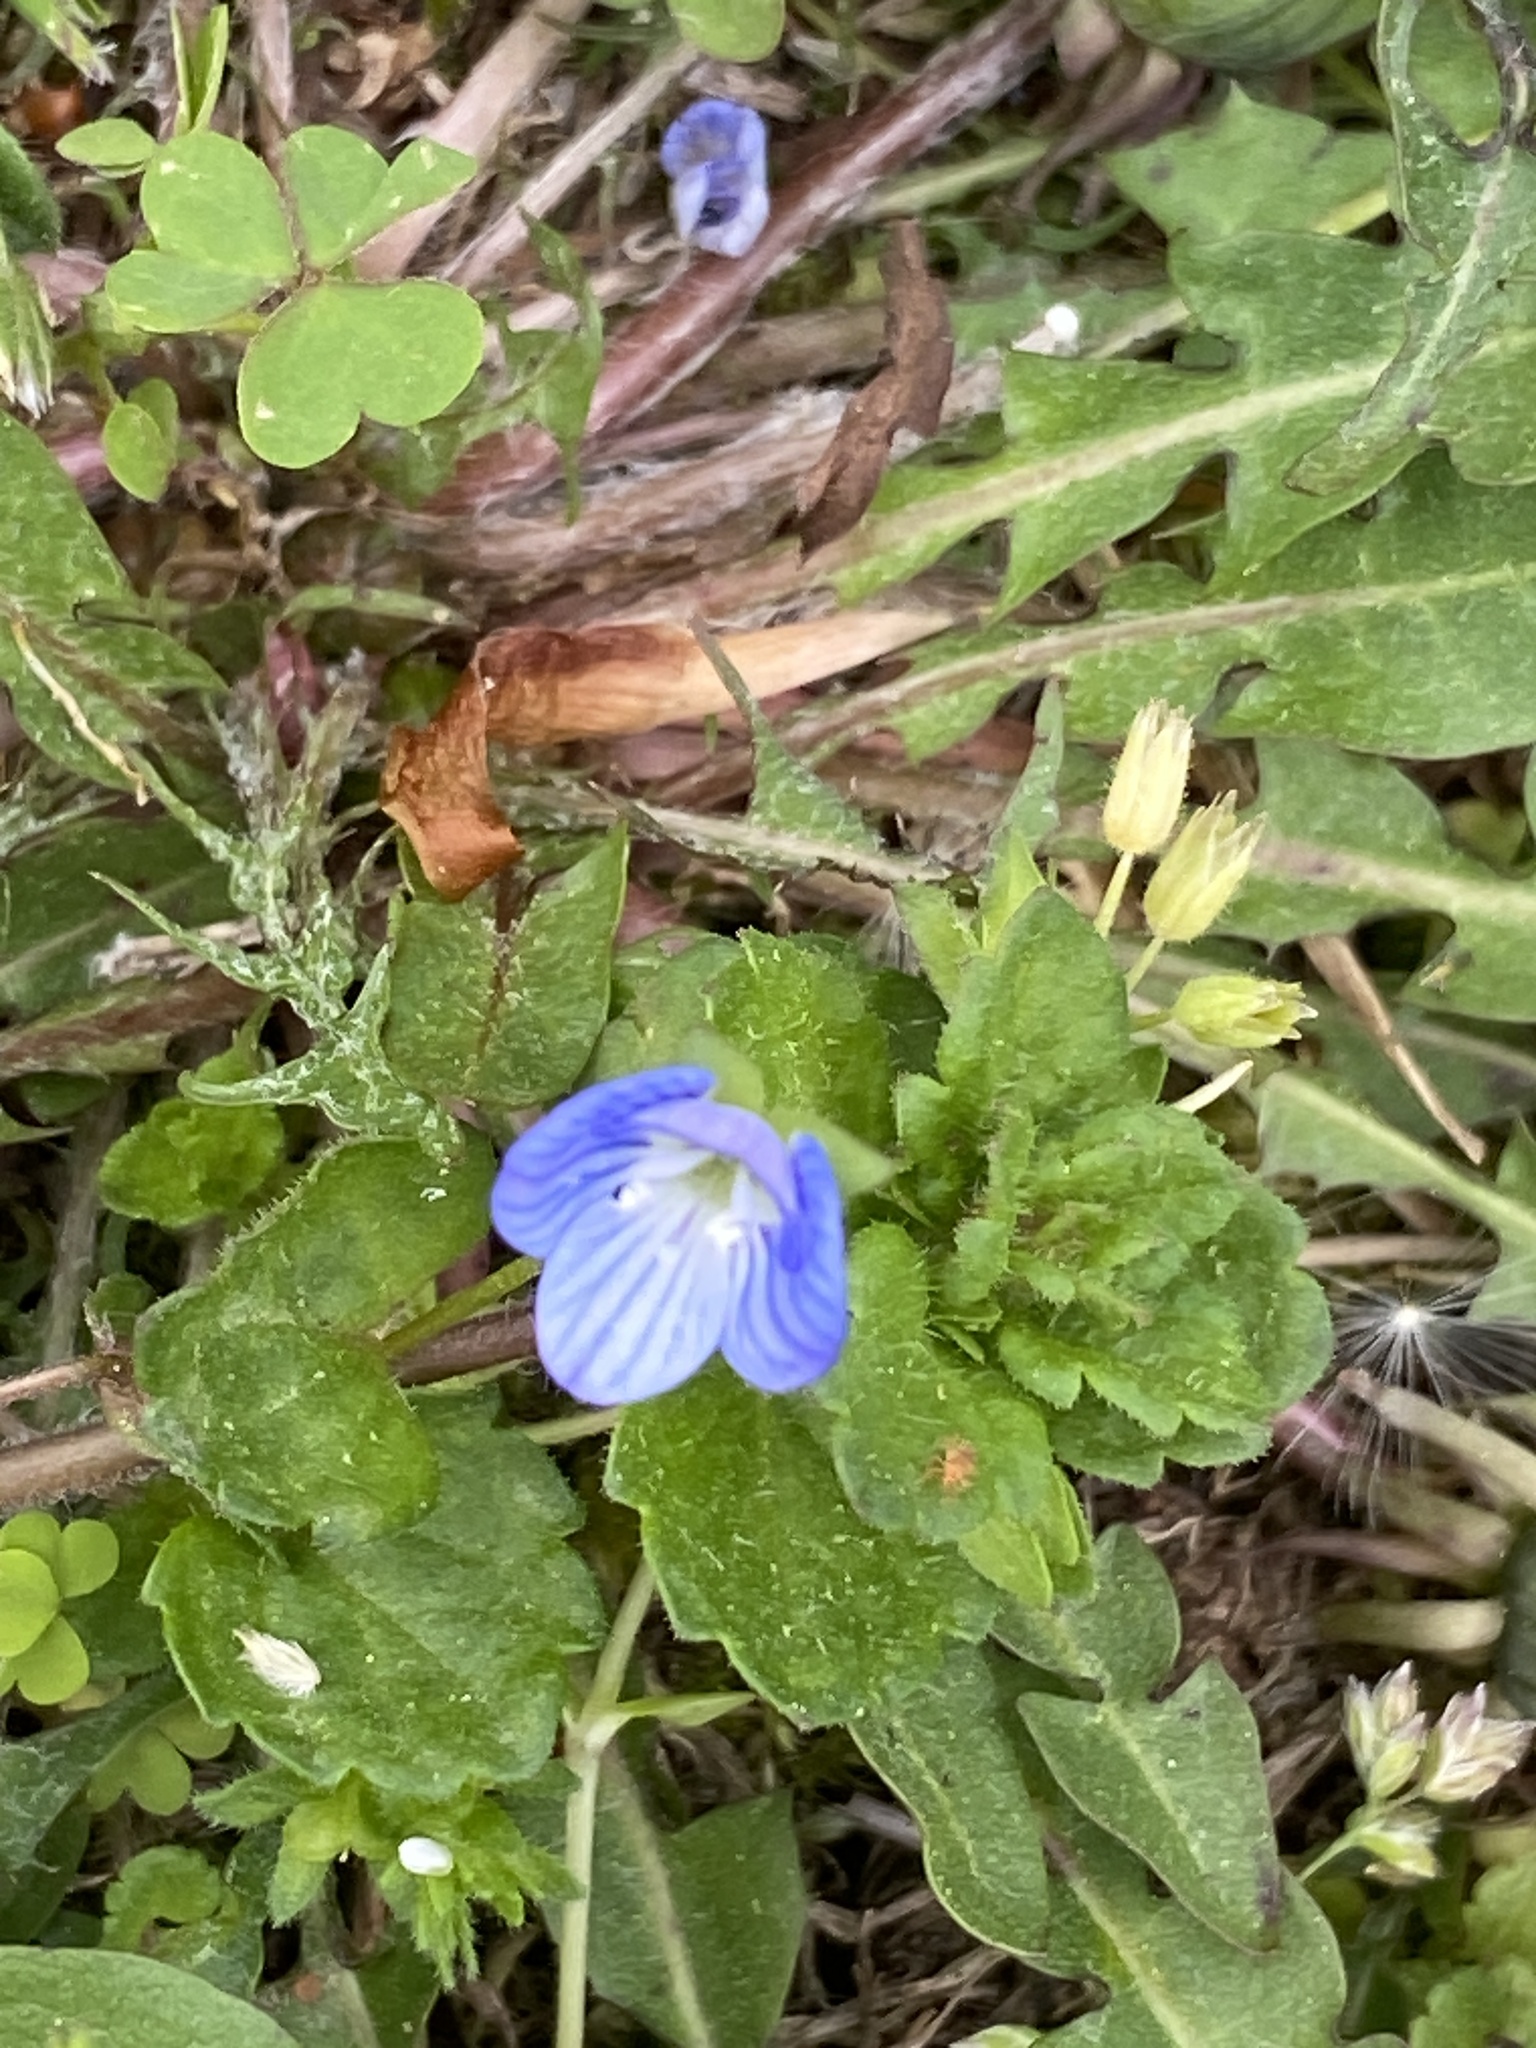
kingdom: Plantae
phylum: Tracheophyta
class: Magnoliopsida
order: Lamiales
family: Plantaginaceae
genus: Veronica
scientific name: Veronica persica
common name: Common field-speedwell
